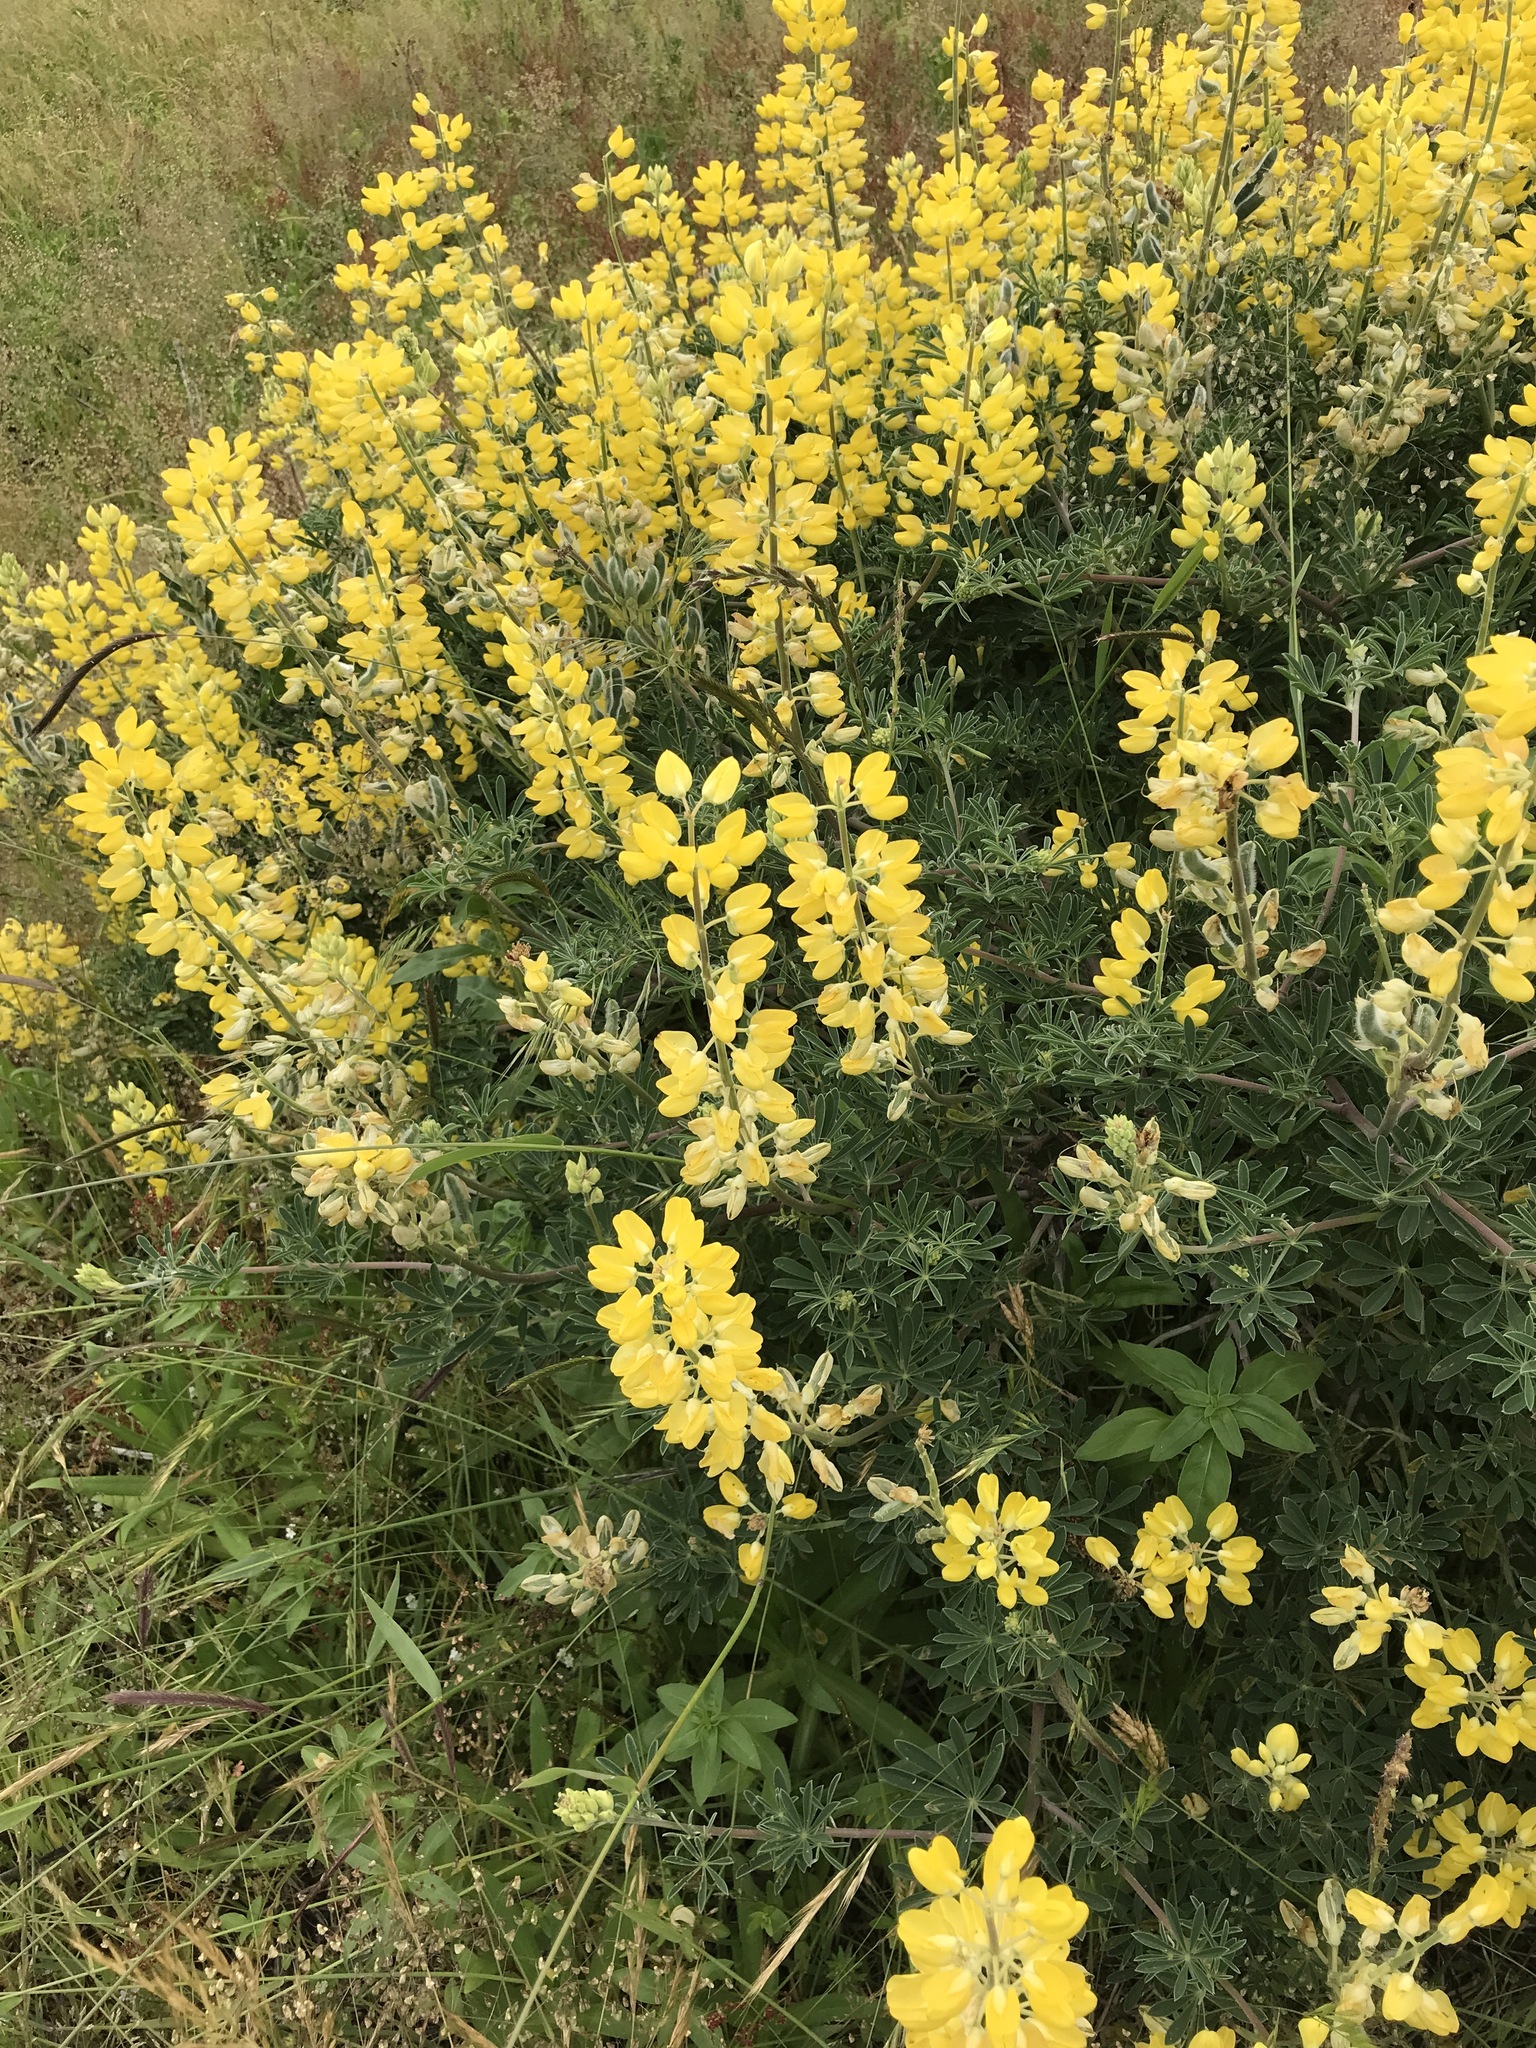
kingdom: Plantae
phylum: Tracheophyta
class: Magnoliopsida
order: Fabales
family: Fabaceae
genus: Lupinus
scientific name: Lupinus arboreus
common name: Yellow bush lupine
